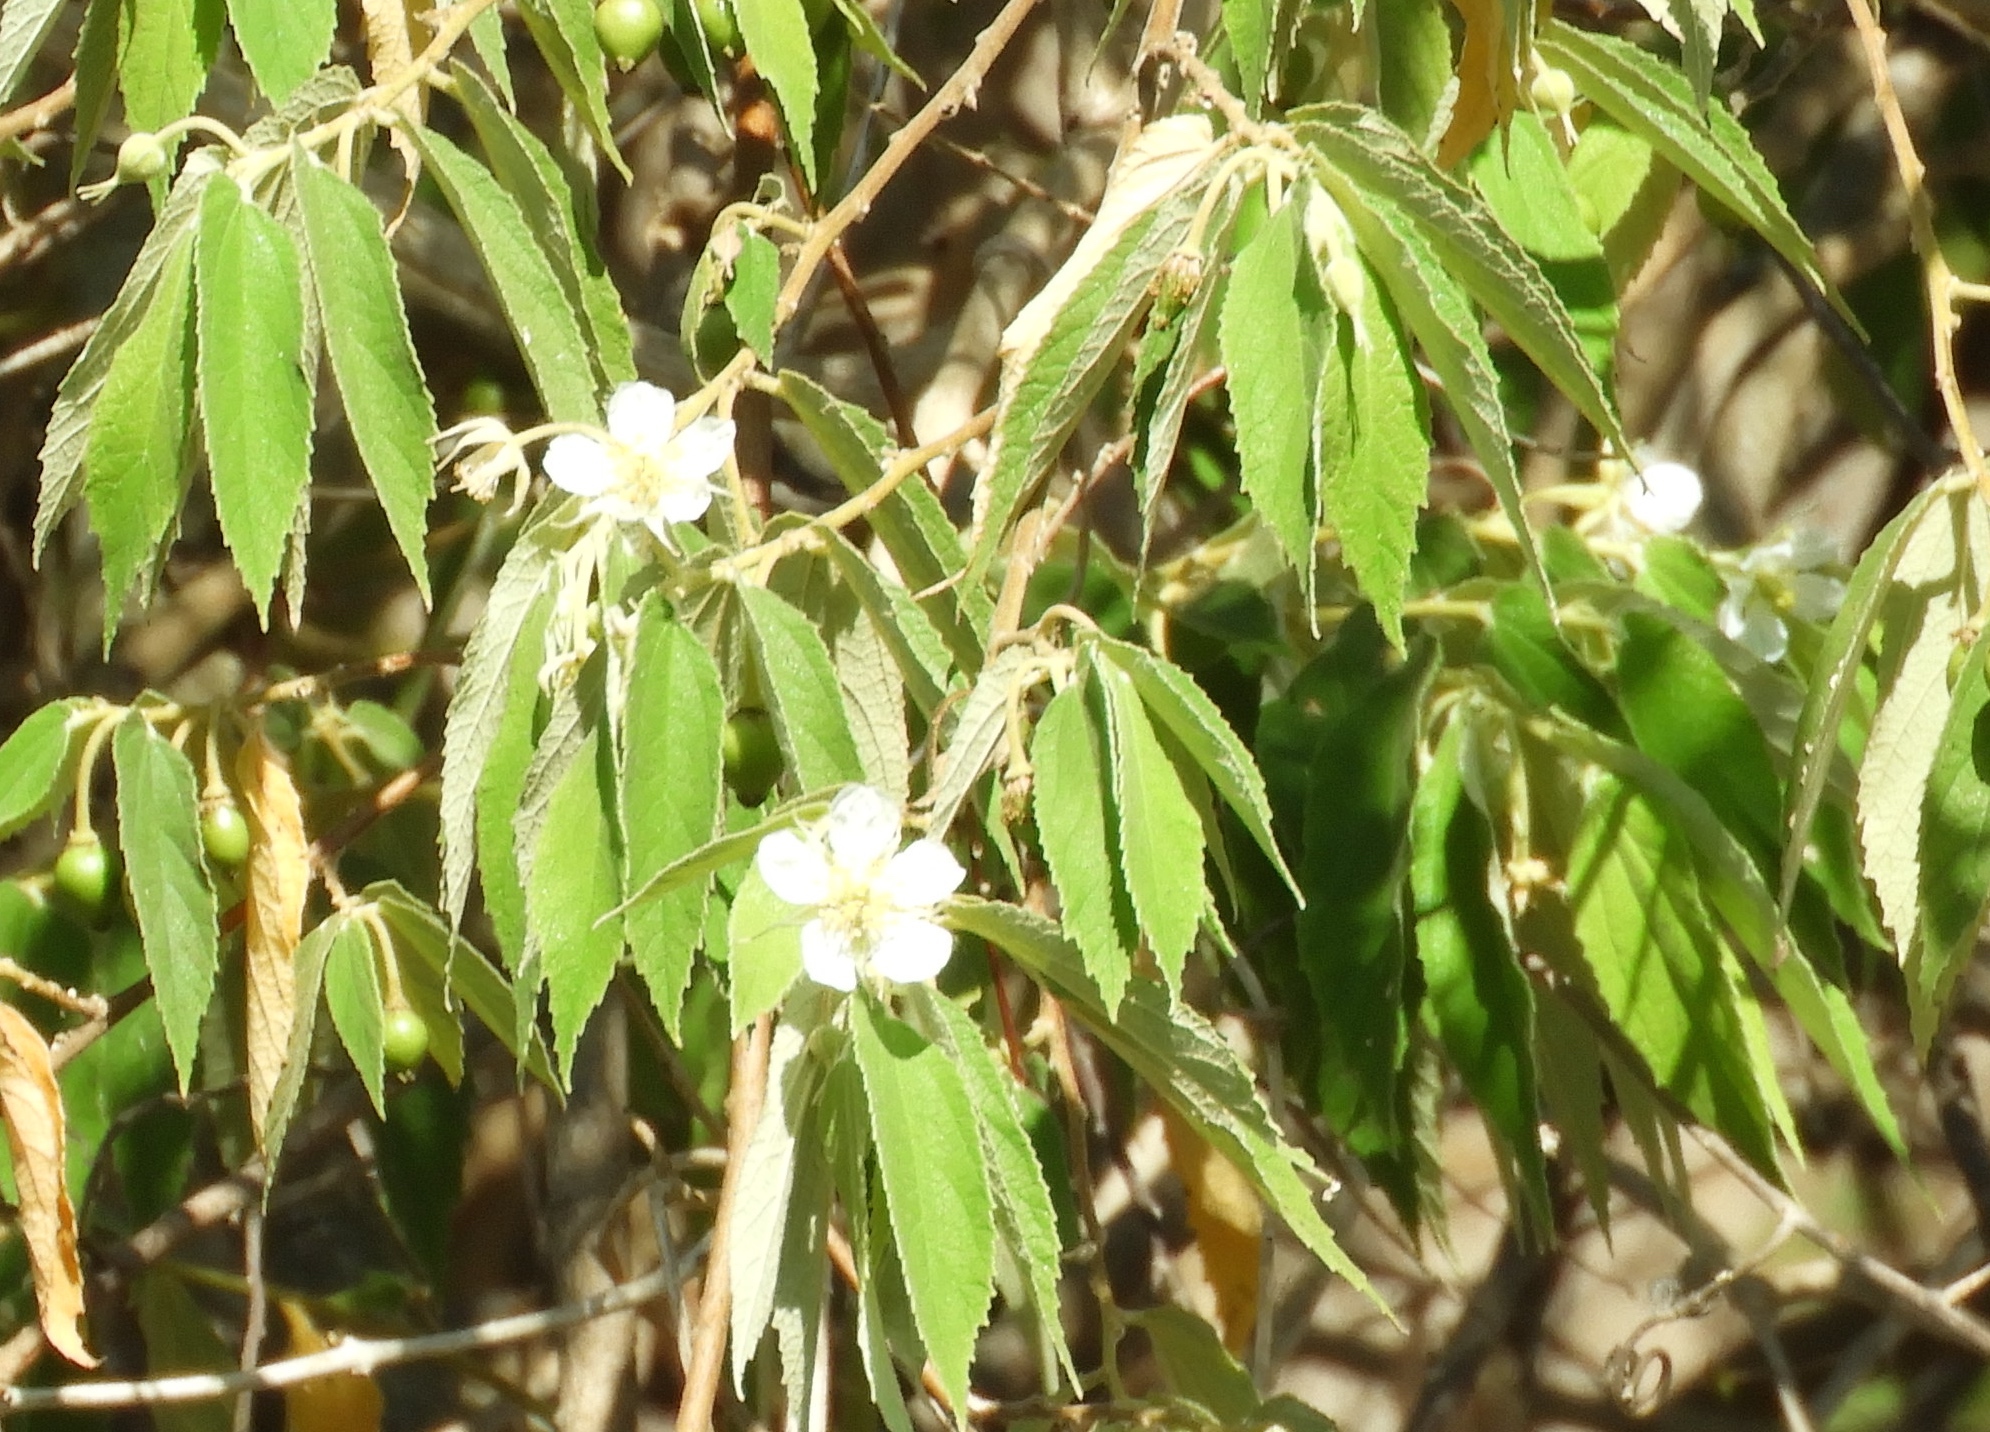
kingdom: Plantae
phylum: Tracheophyta
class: Magnoliopsida
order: Malvales
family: Muntingiaceae
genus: Muntingia
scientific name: Muntingia calabura
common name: Strawberrytree
